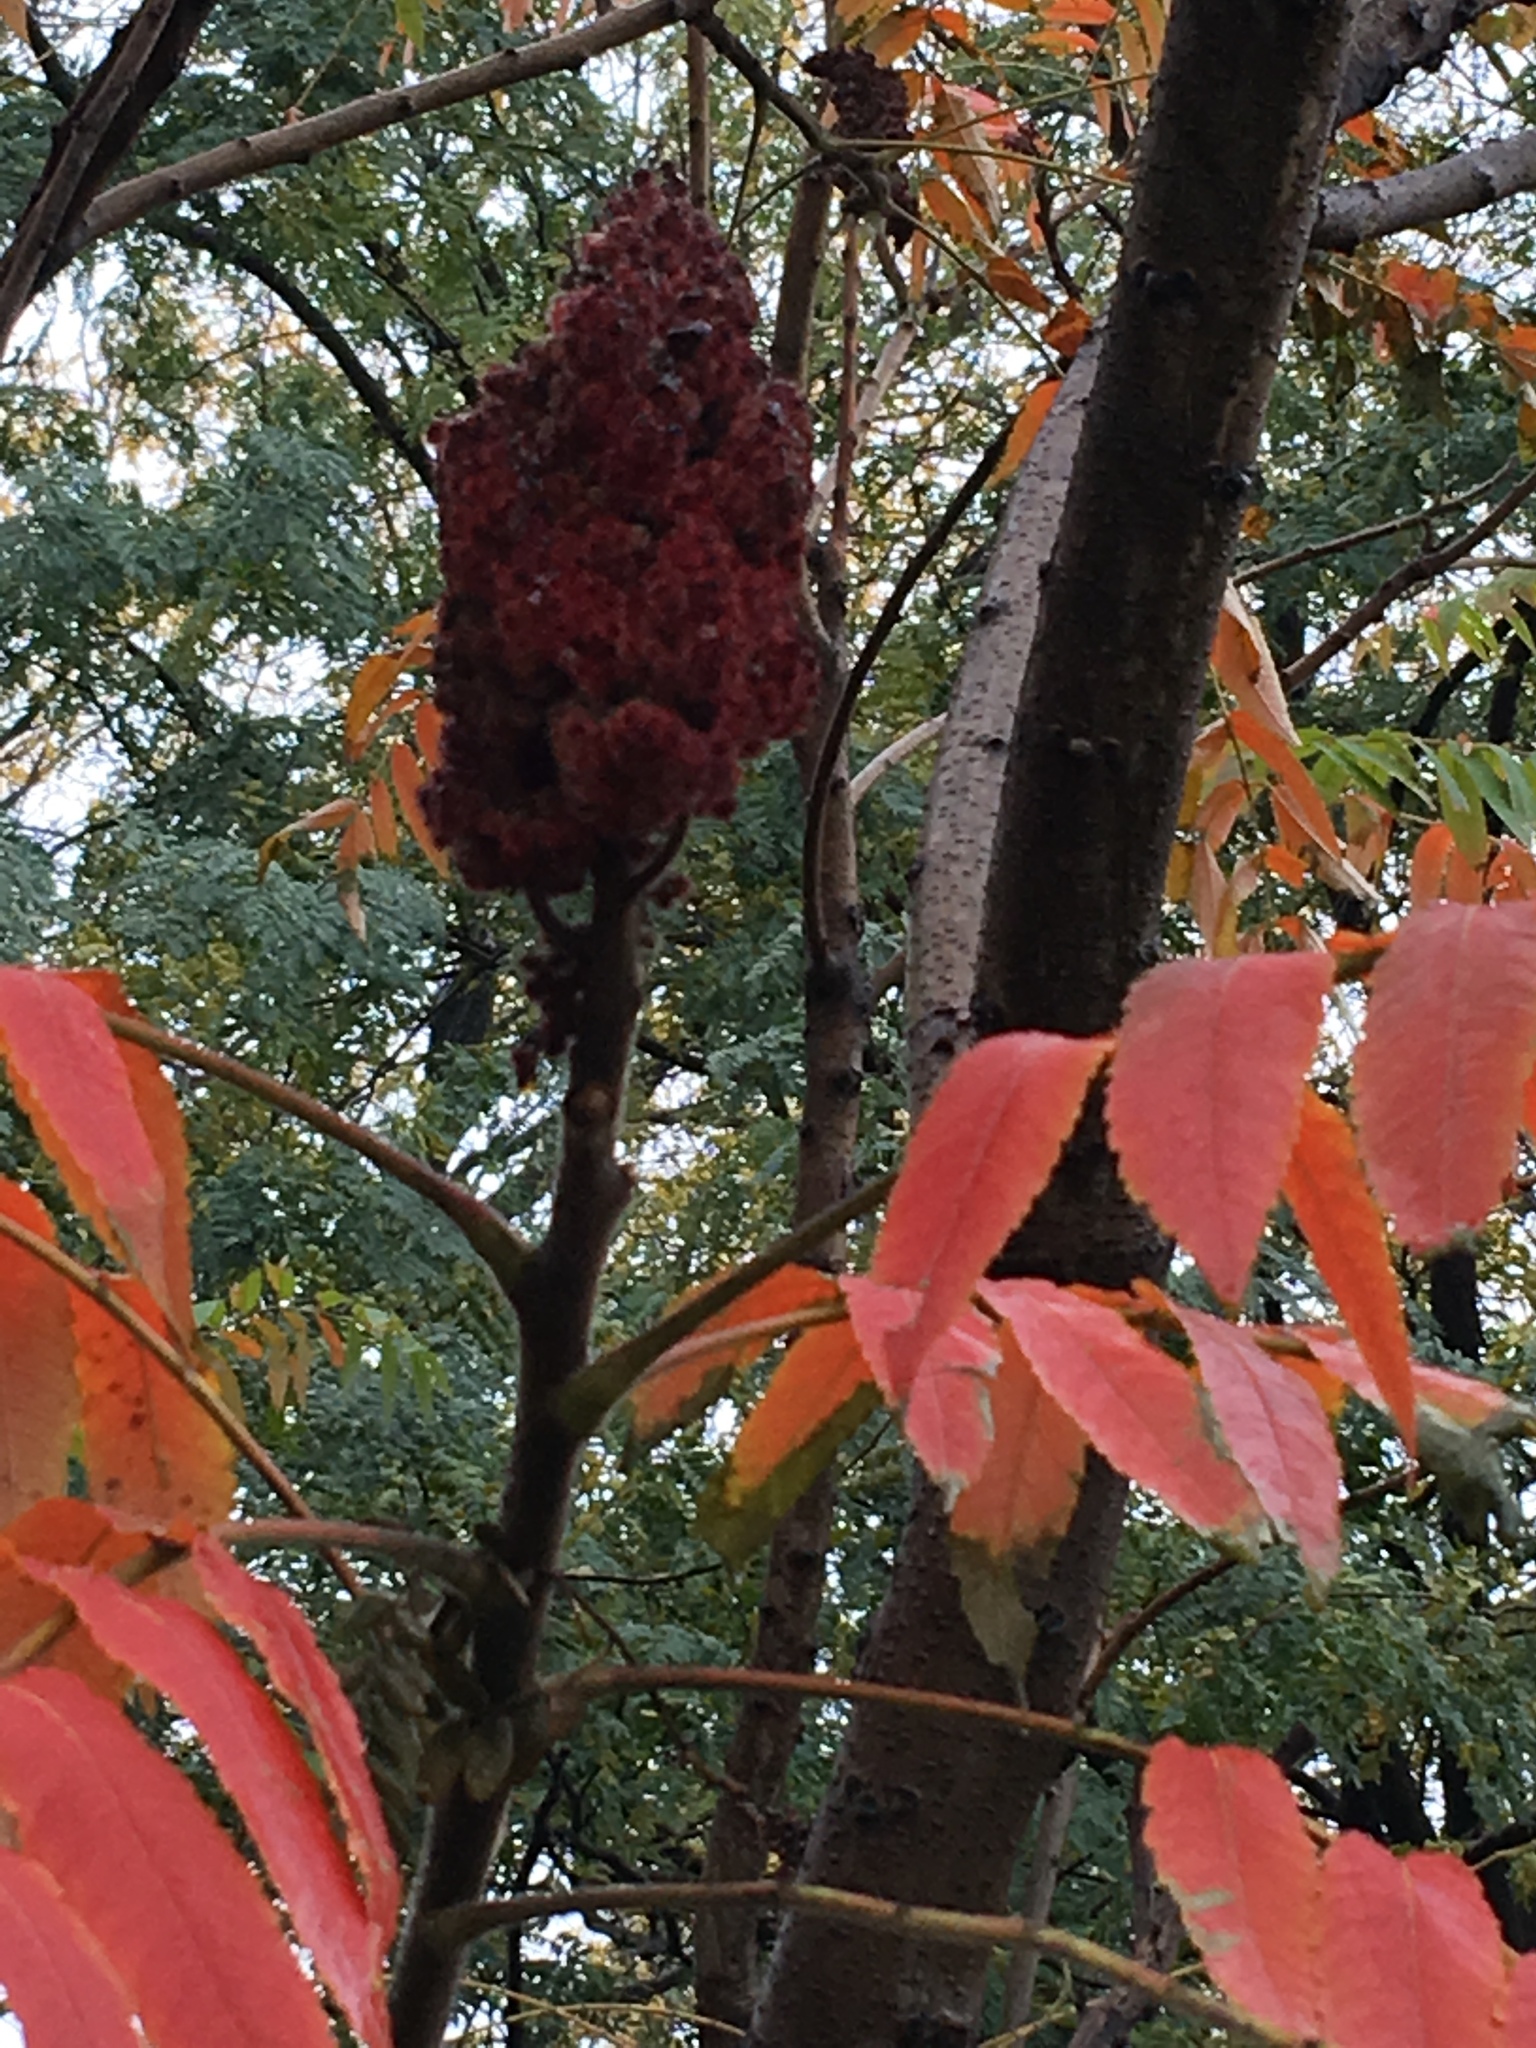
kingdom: Plantae
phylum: Tracheophyta
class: Magnoliopsida
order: Sapindales
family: Anacardiaceae
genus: Rhus
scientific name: Rhus typhina
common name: Staghorn sumac
